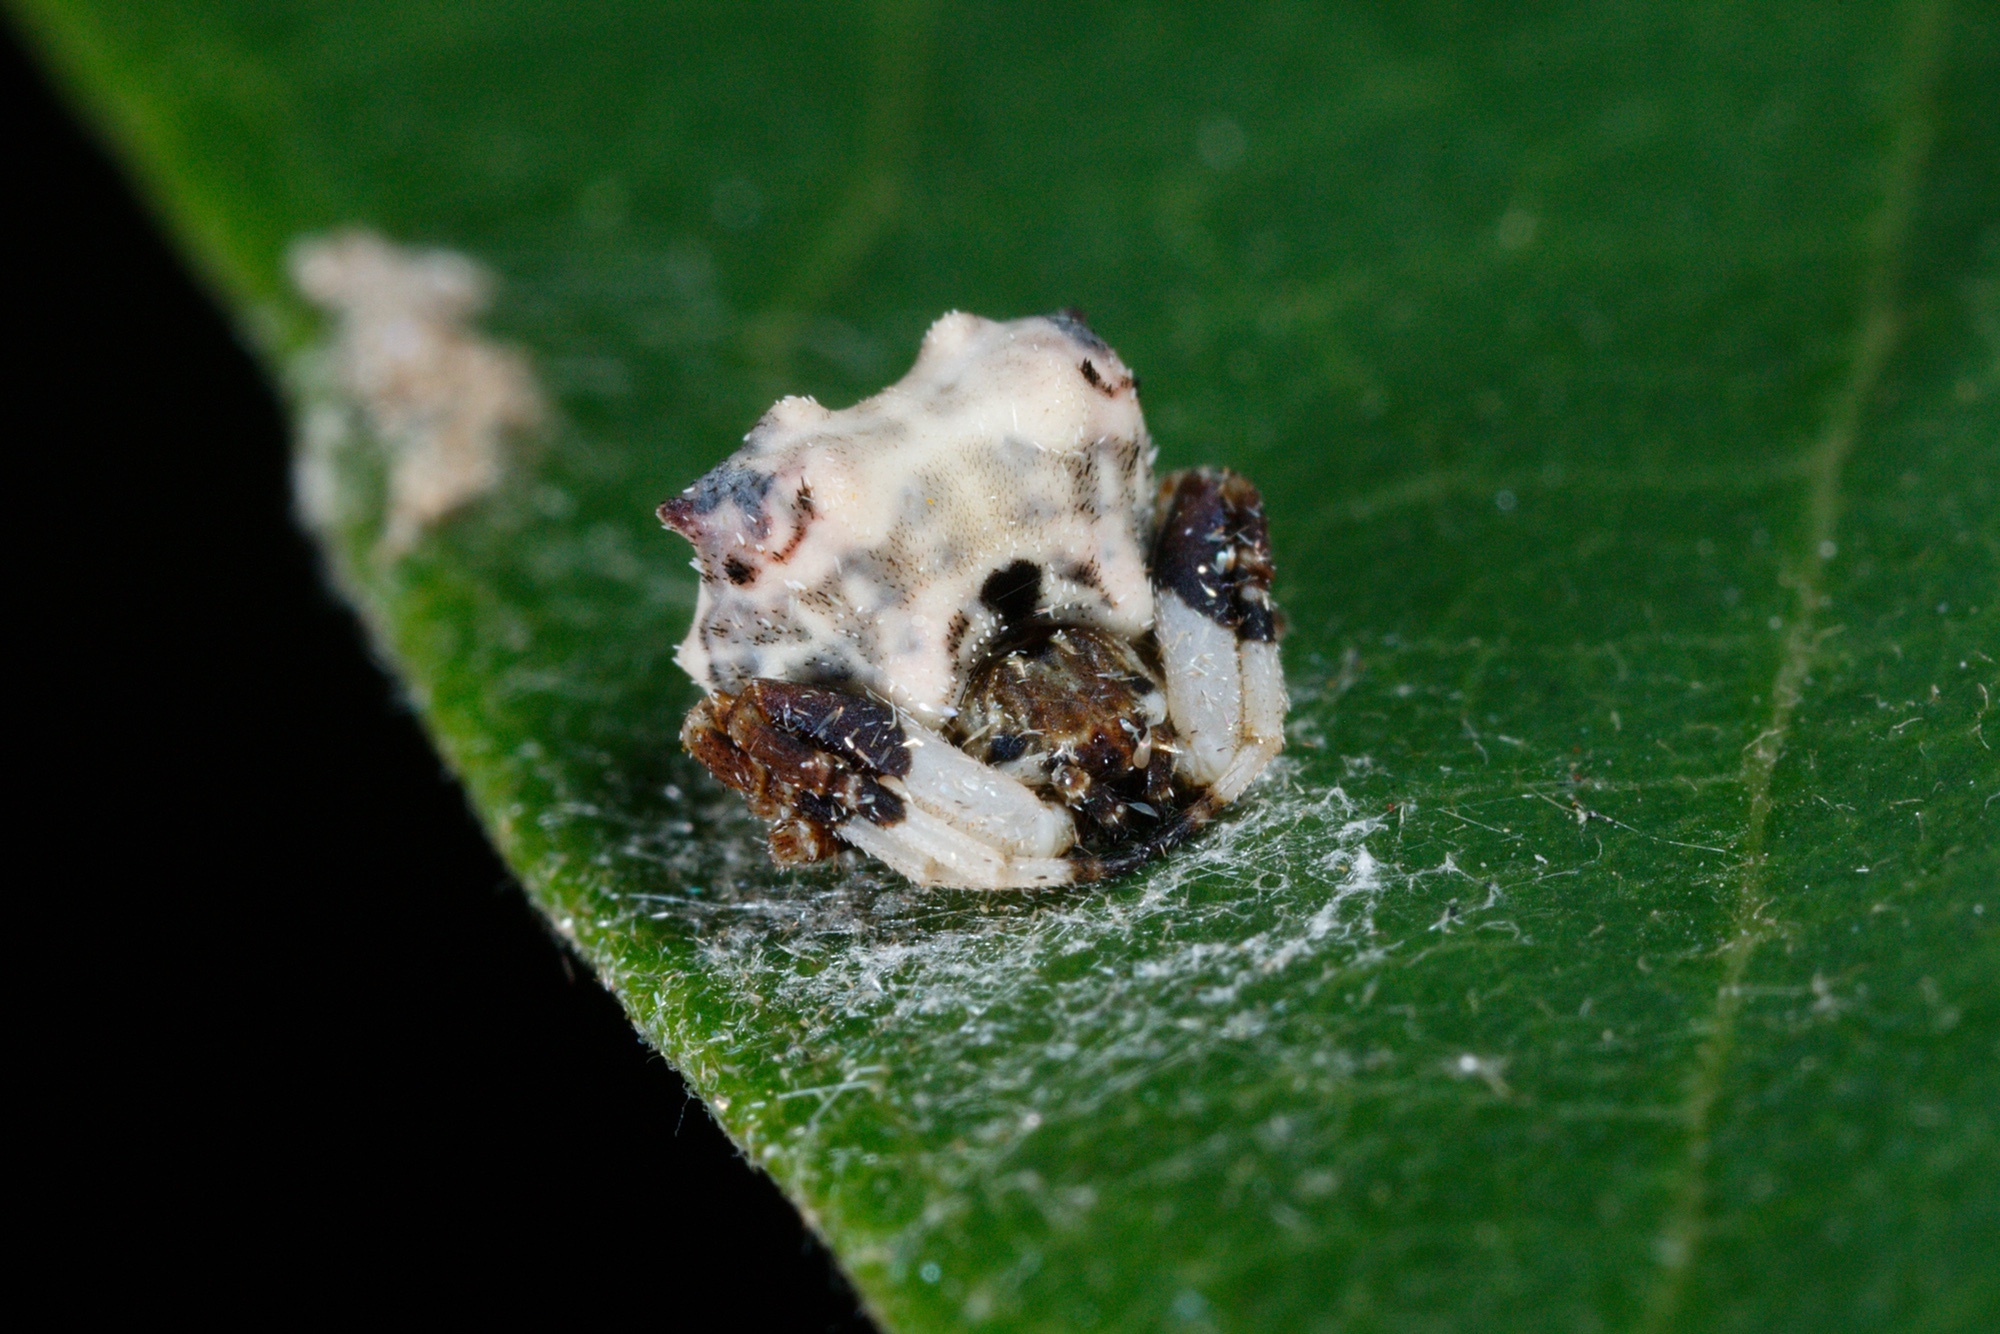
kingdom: Animalia
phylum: Arthropoda
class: Arachnida
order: Araneae
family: Araneidae
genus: Celaenia
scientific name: Celaenia excavata
